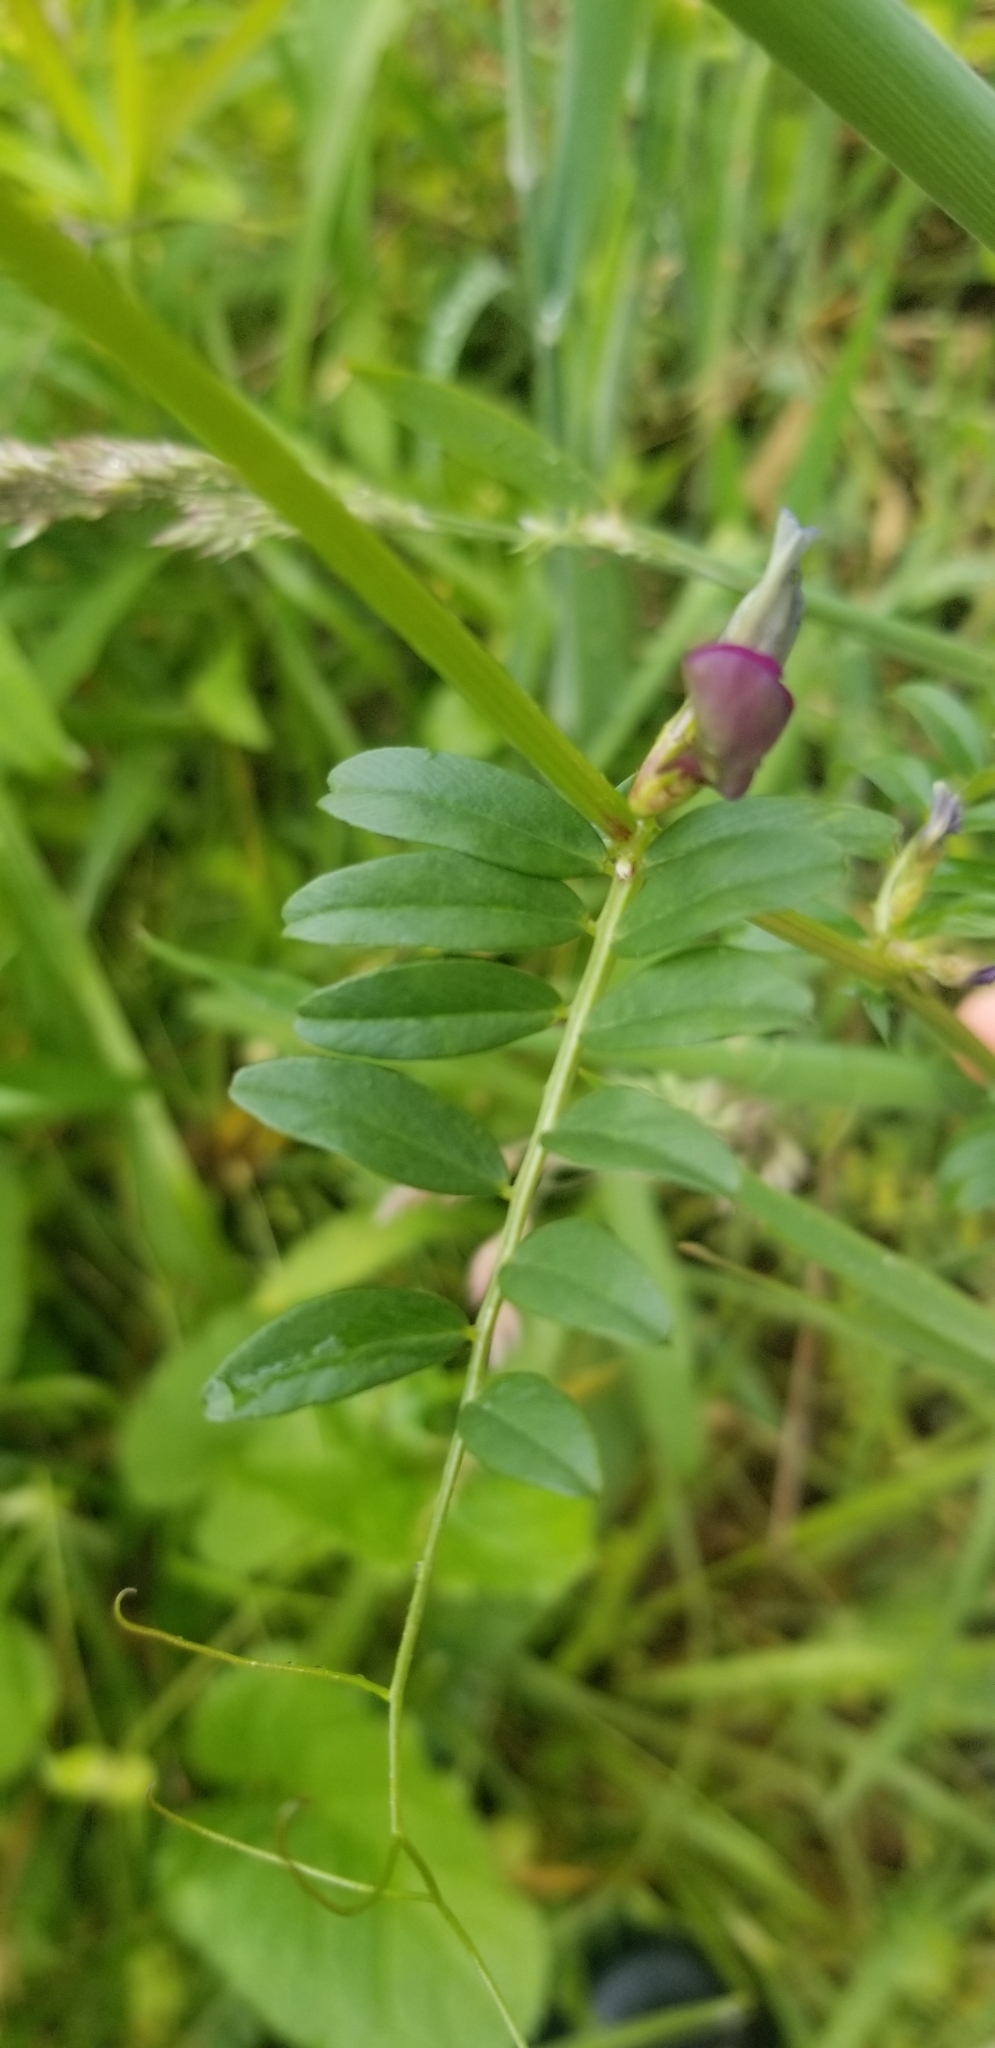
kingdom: Plantae
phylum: Tracheophyta
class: Magnoliopsida
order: Fabales
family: Fabaceae
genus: Vicia
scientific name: Vicia sativa
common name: Garden vetch
